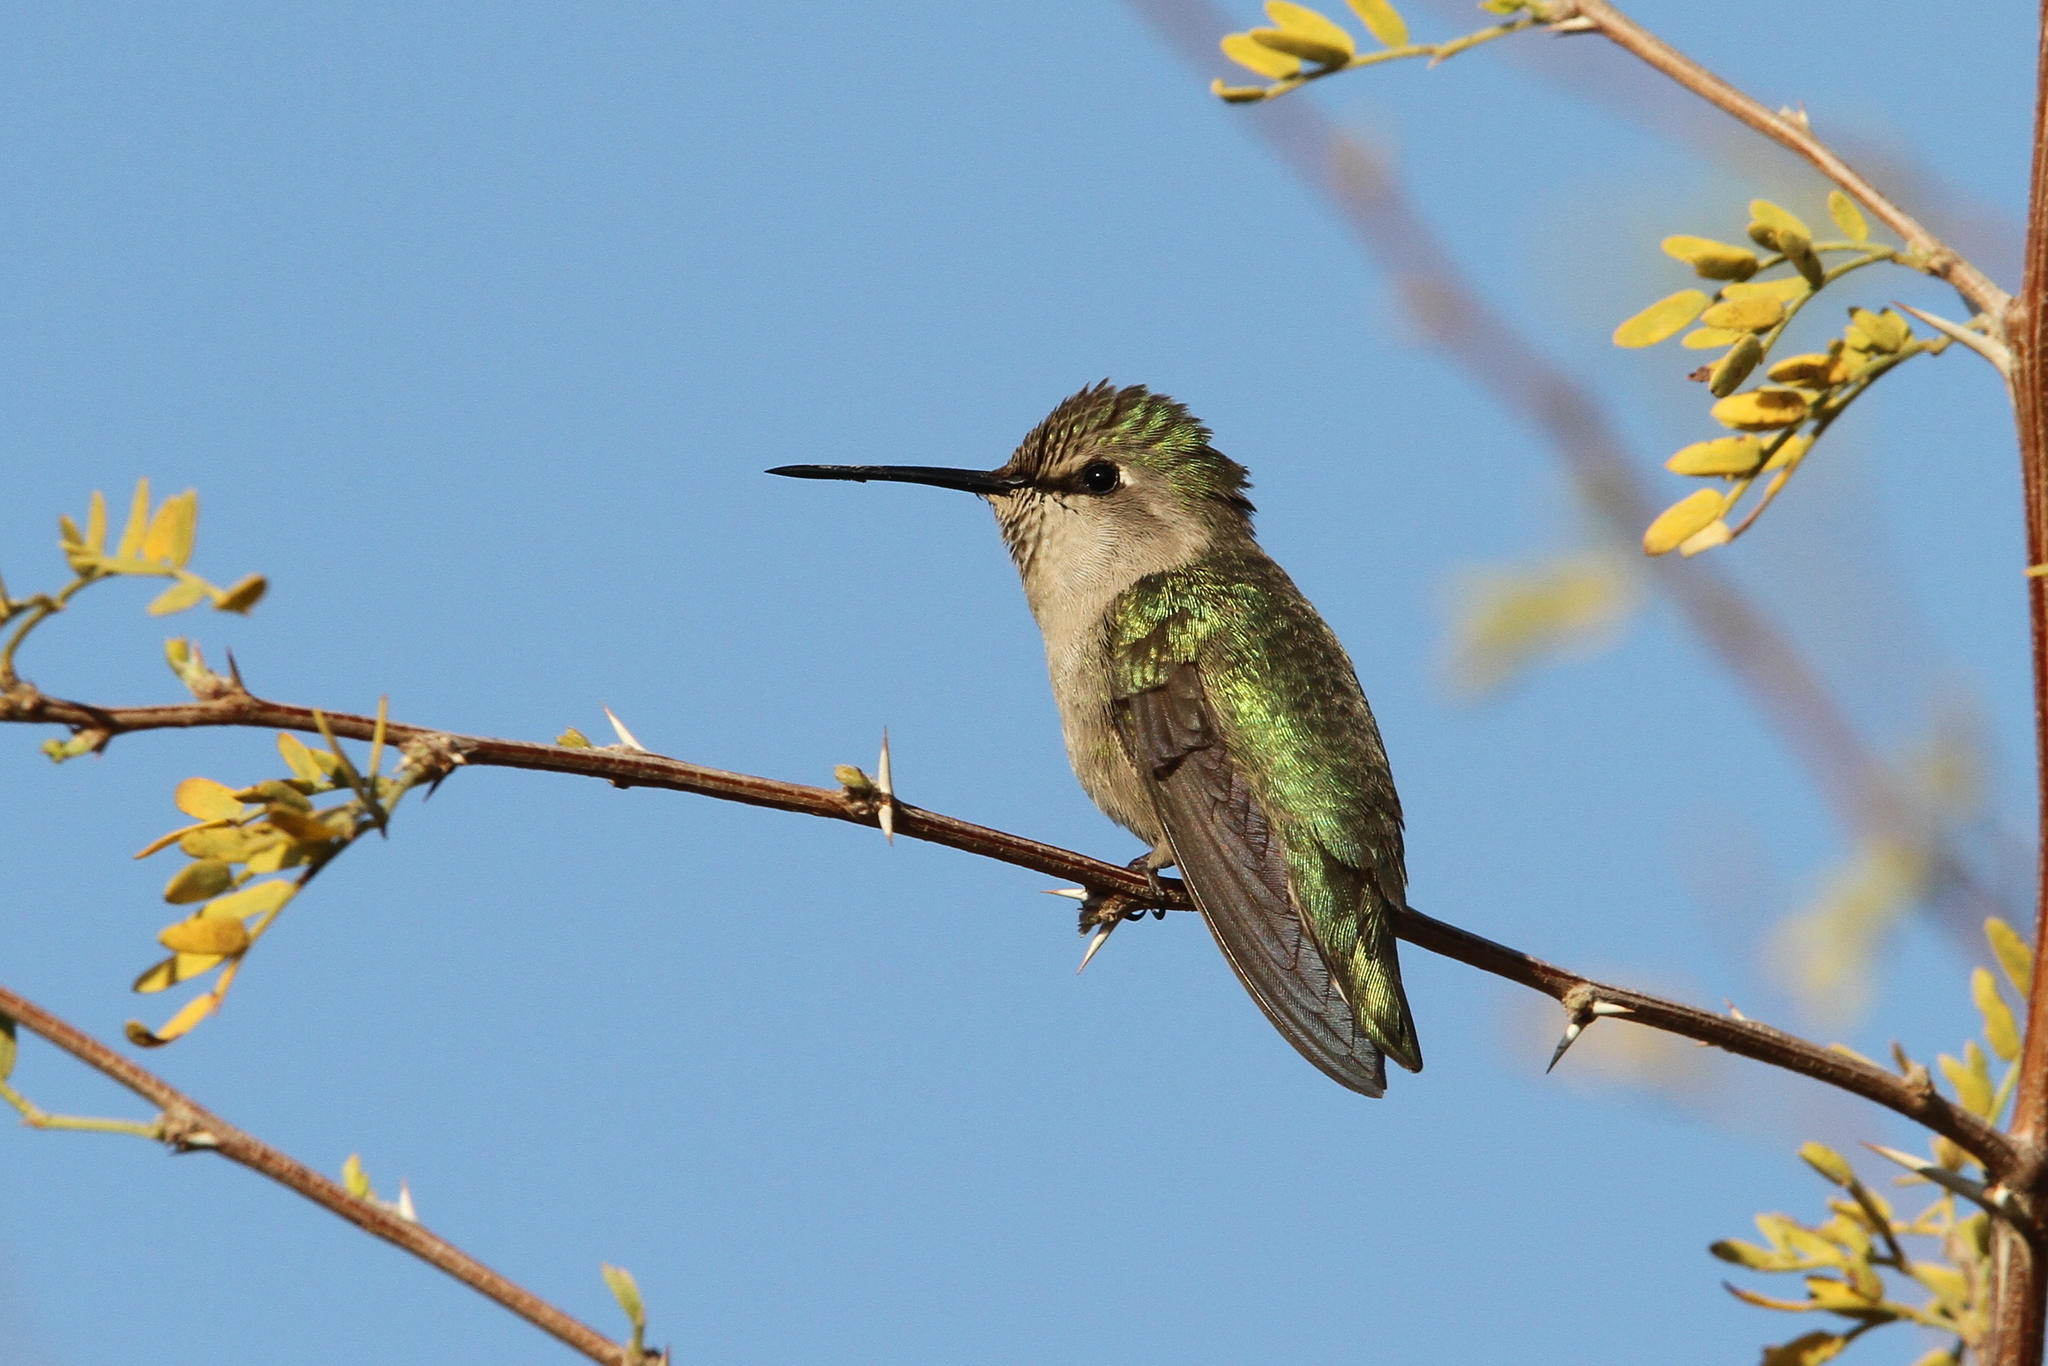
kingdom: Animalia
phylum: Chordata
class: Aves
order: Apodiformes
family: Trochilidae
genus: Calypte
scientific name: Calypte costae
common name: Costa's hummingbird
